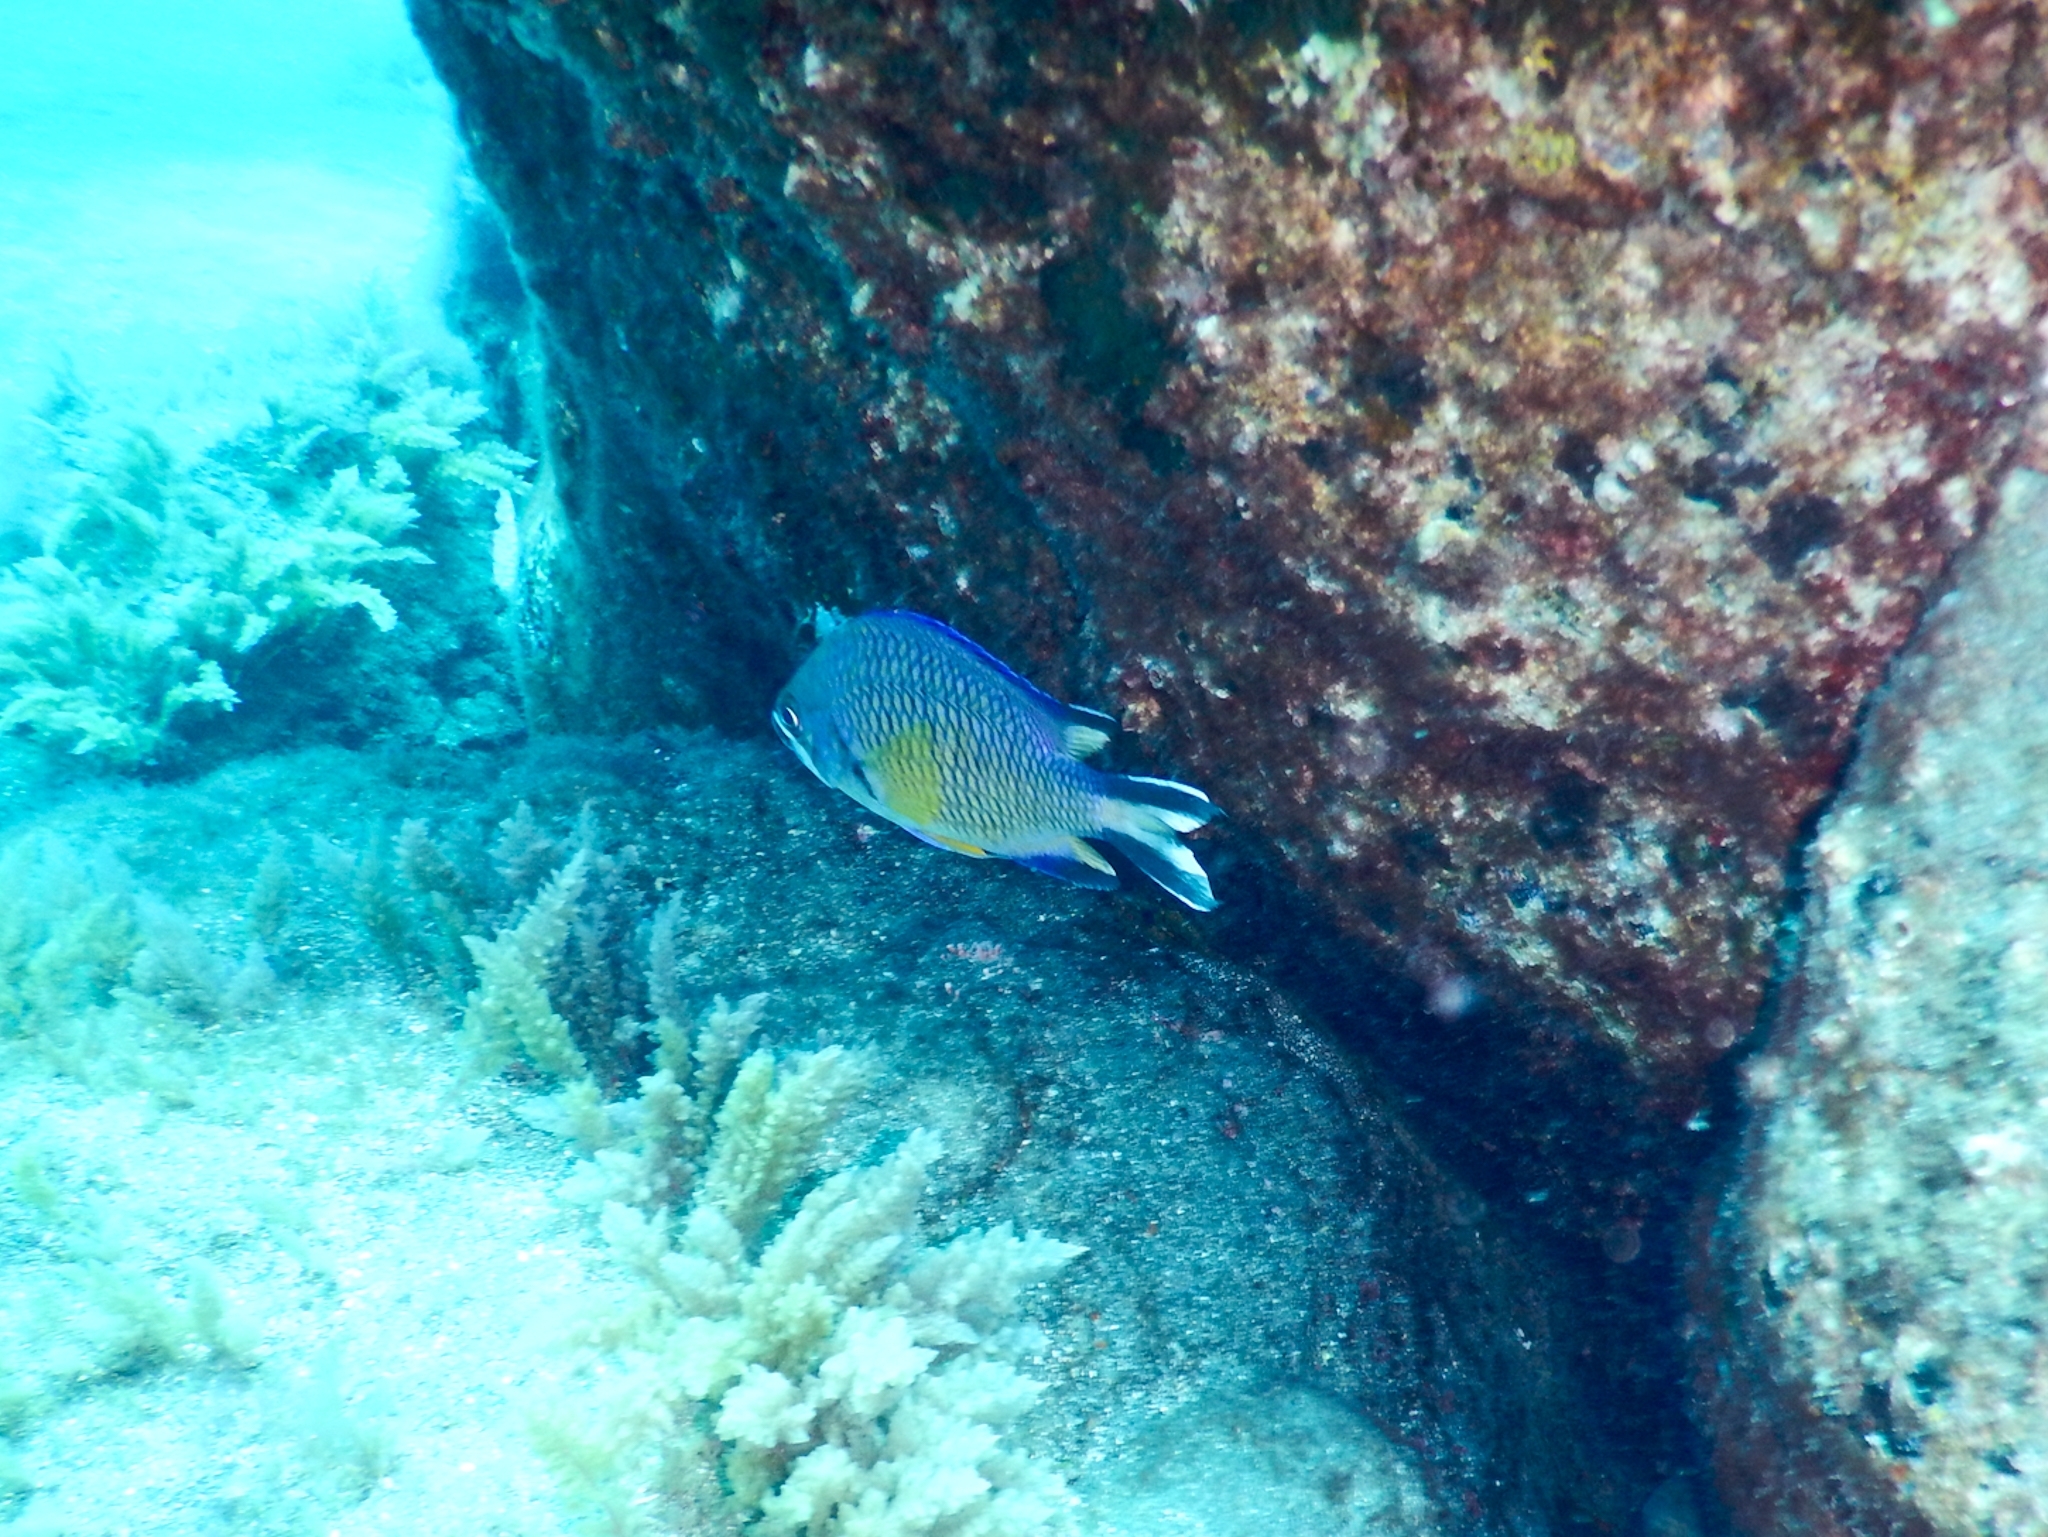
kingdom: Animalia
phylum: Chordata
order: Perciformes
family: Pomacentridae
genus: Chromis
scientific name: Chromis limbata
